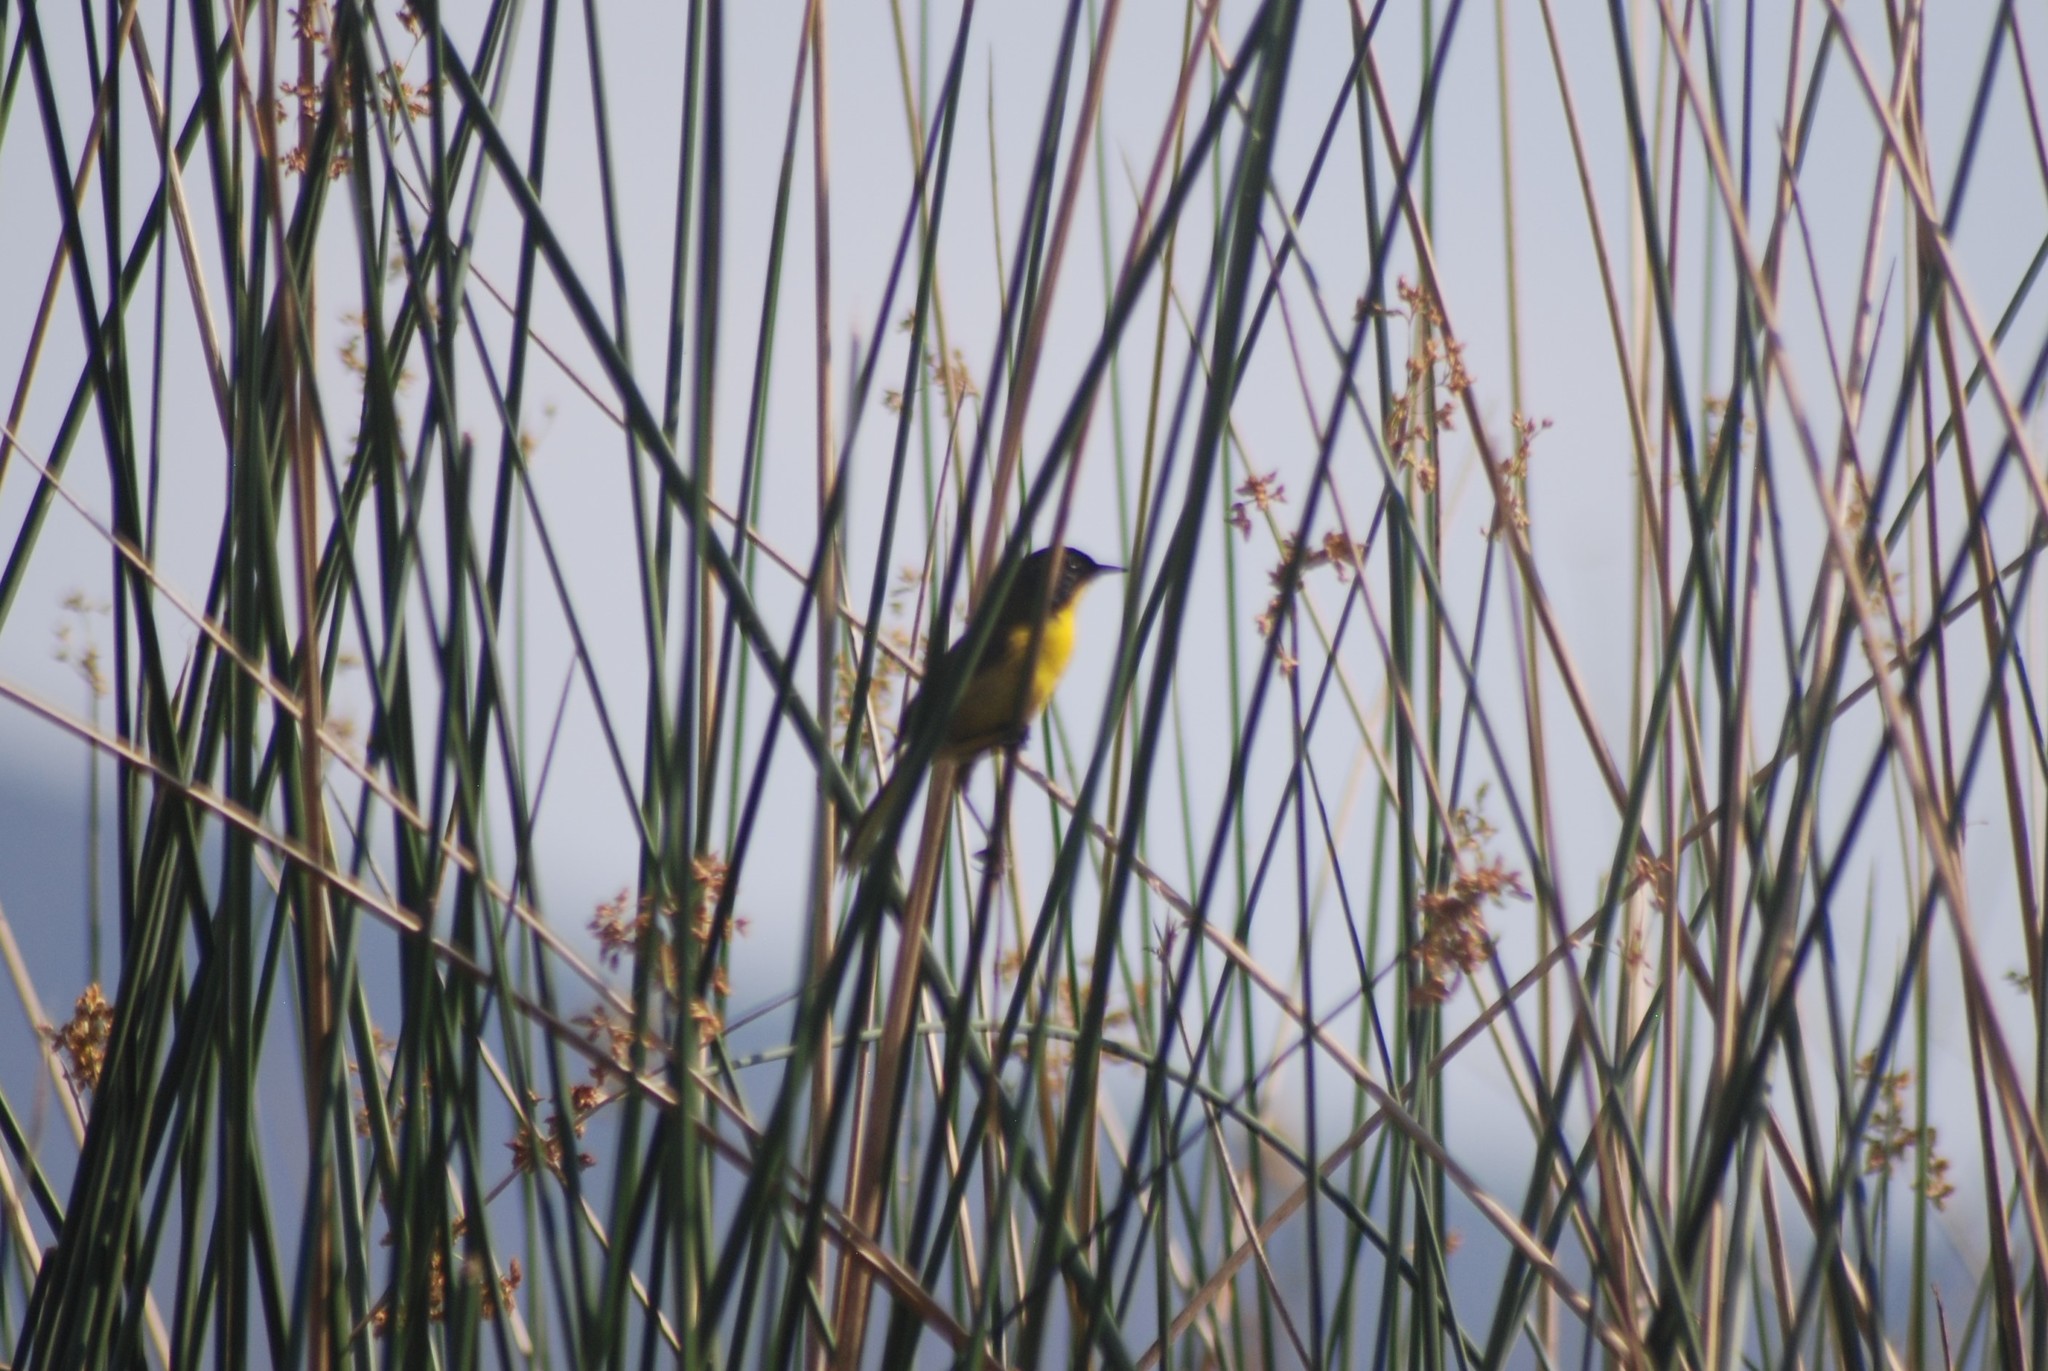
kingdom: Animalia
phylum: Chordata
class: Aves
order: Passeriformes
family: Parulidae
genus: Geothlypis
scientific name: Geothlypis speciosa
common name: Black-polled yellowthroat
